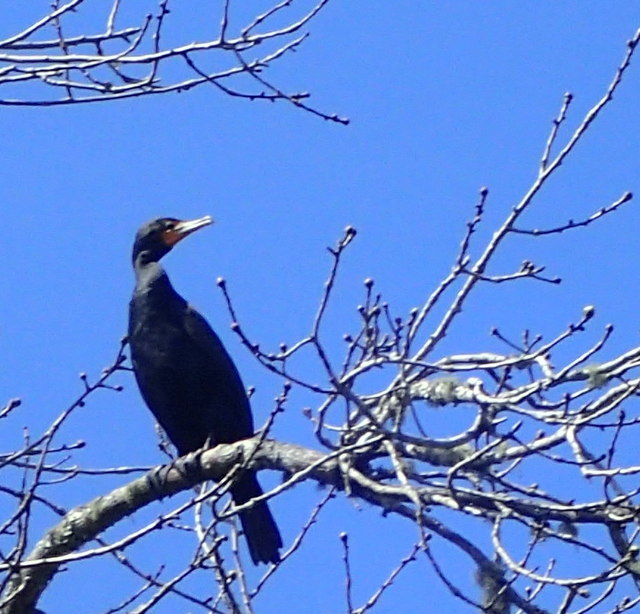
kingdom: Animalia
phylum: Chordata
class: Aves
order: Suliformes
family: Phalacrocoracidae
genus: Phalacrocorax
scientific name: Phalacrocorax auritus
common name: Double-crested cormorant
